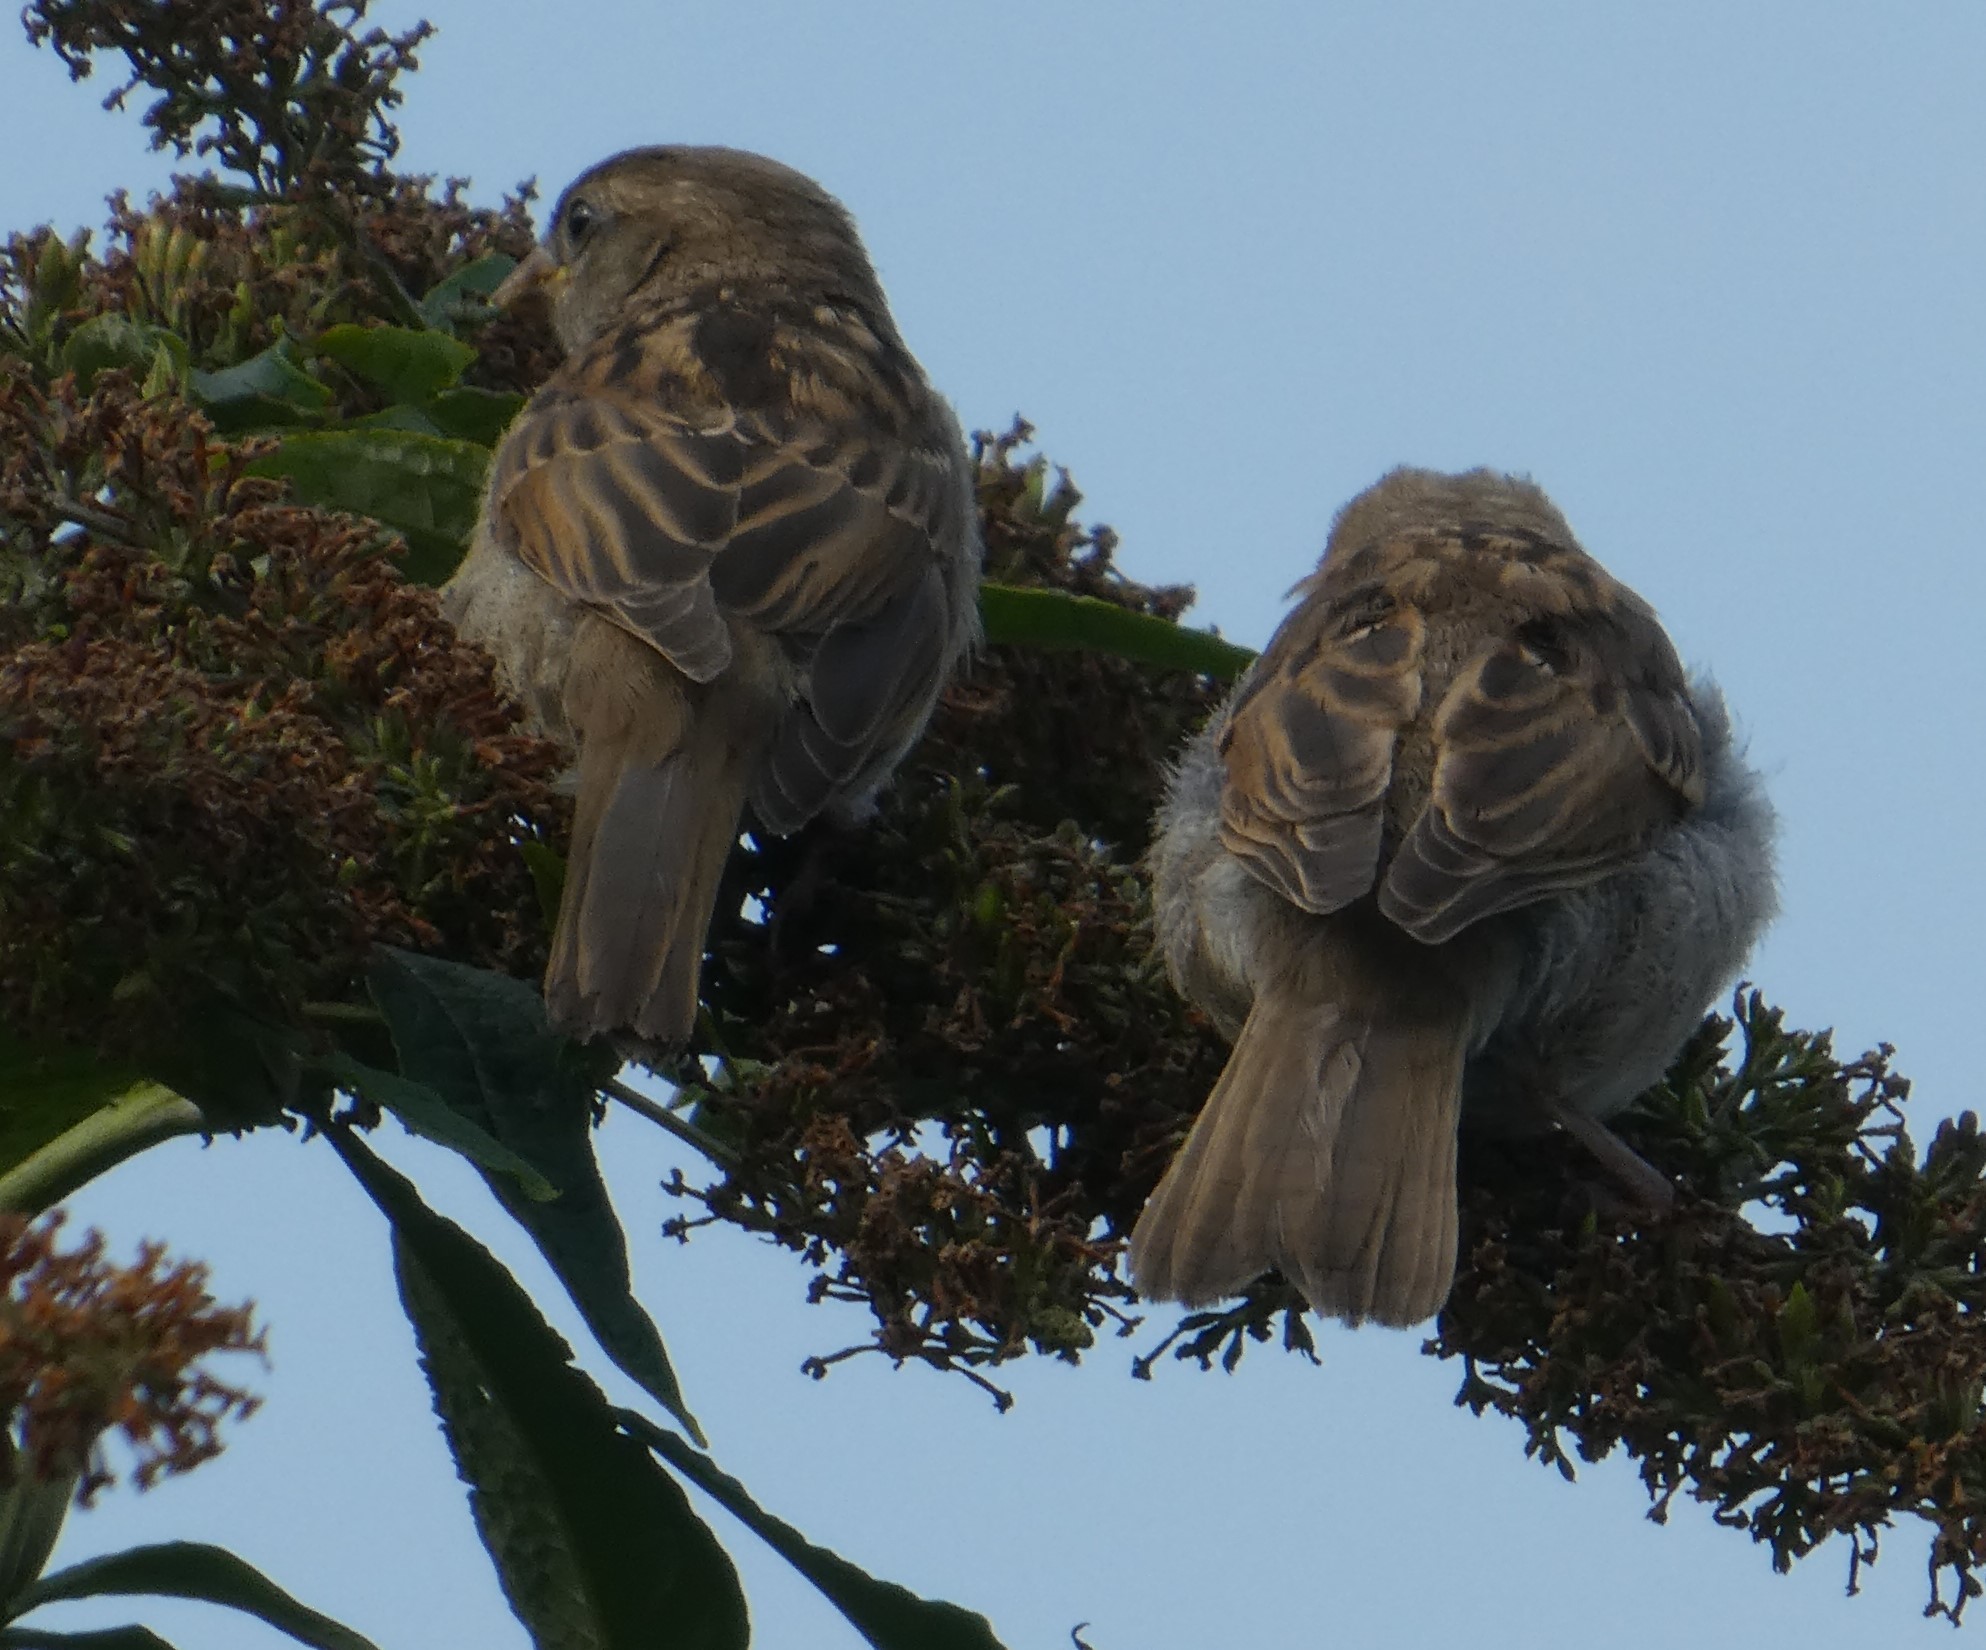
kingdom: Animalia
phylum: Chordata
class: Aves
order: Passeriformes
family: Passeridae
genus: Passer
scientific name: Passer domesticus
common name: House sparrow
